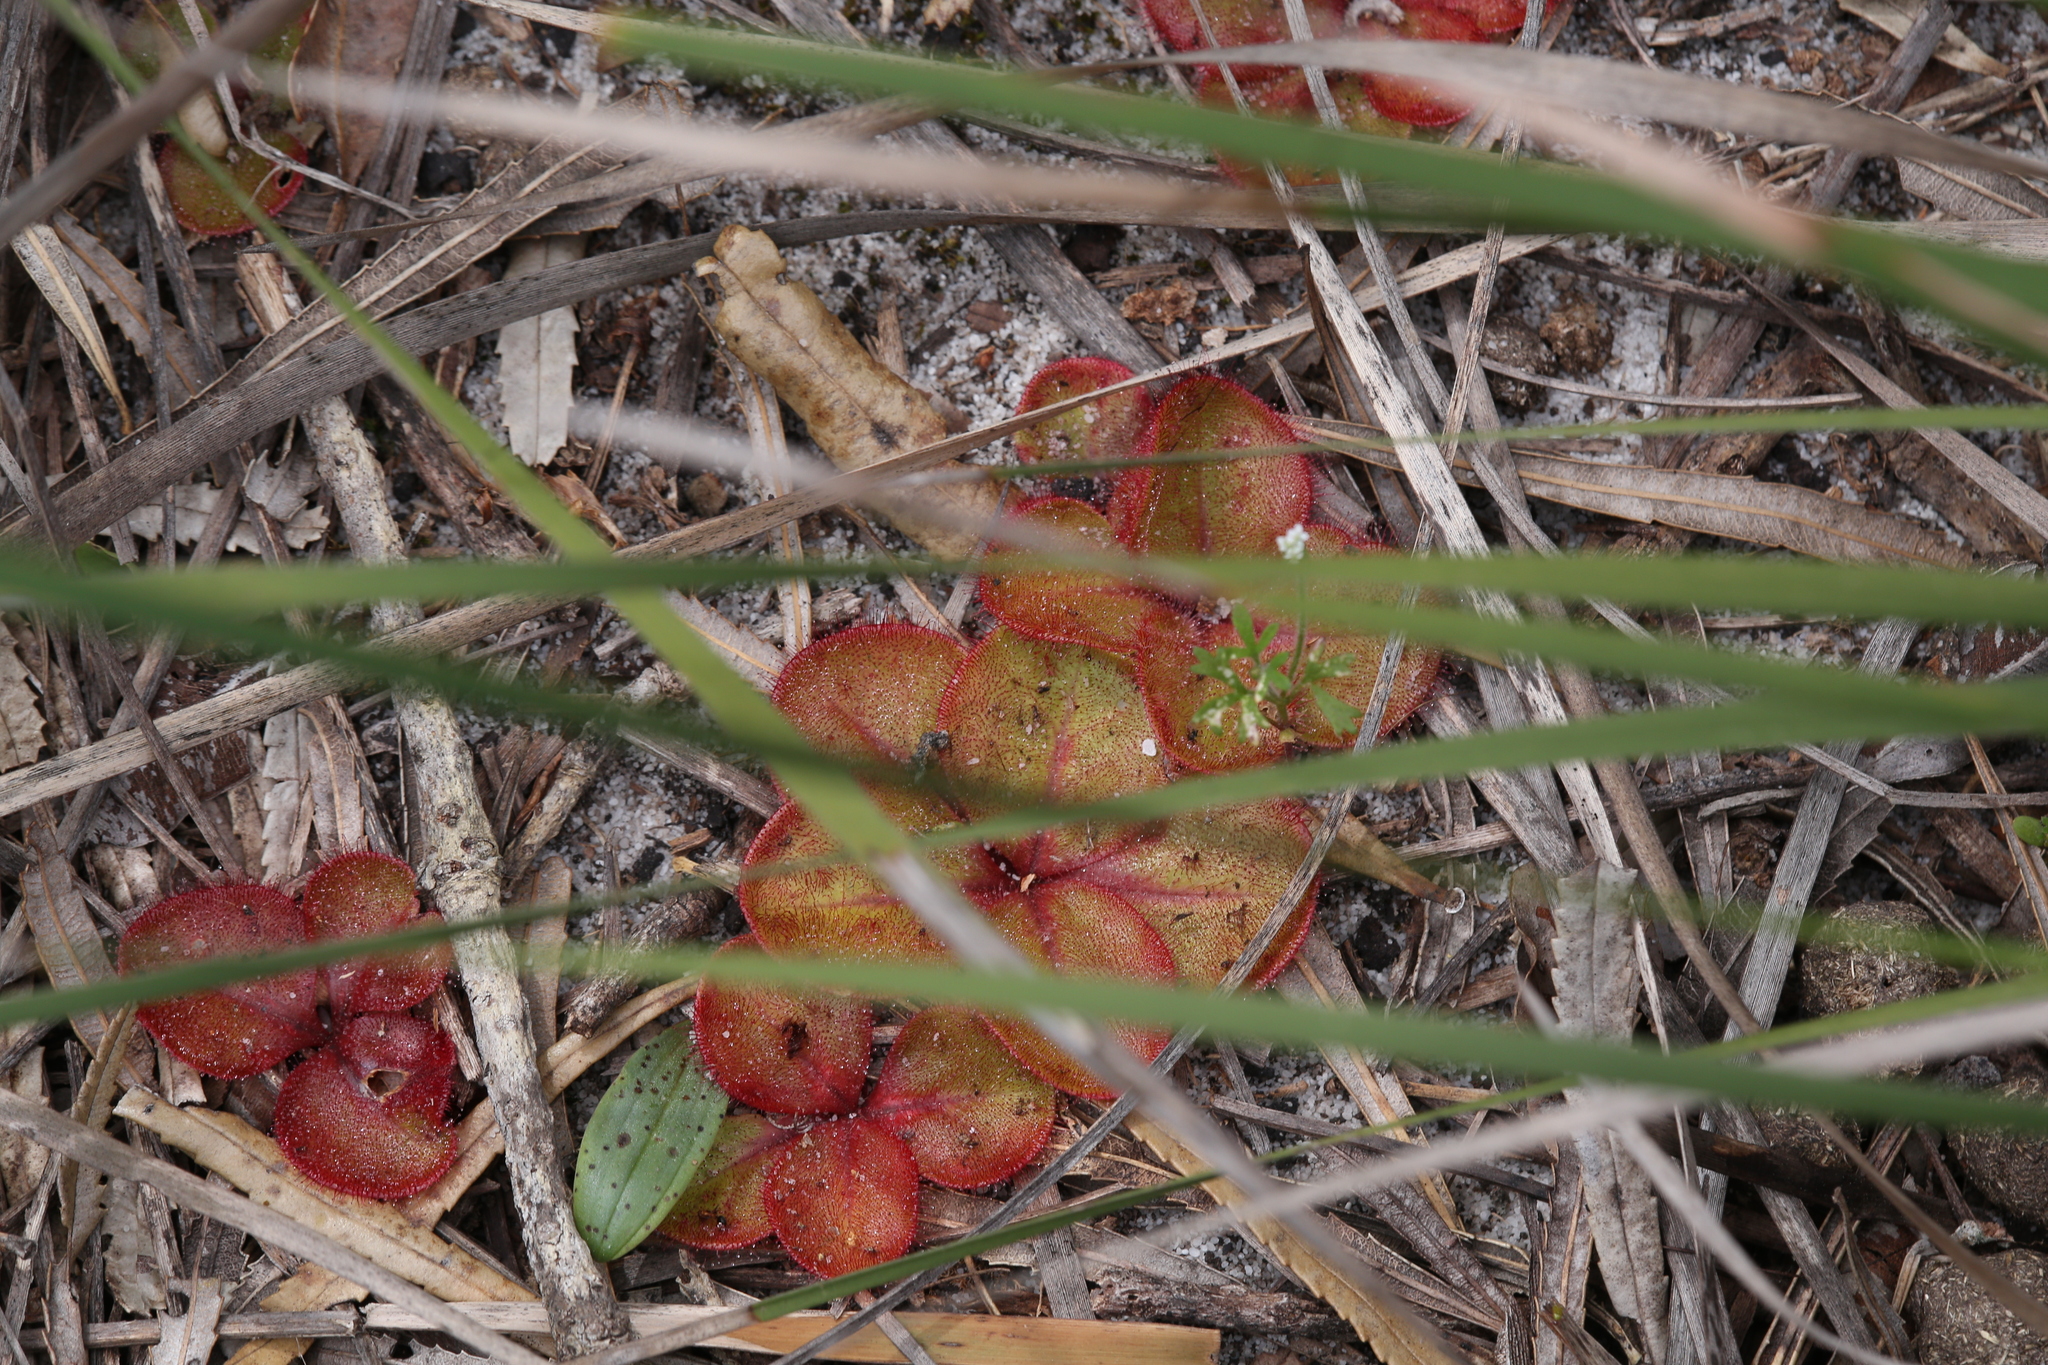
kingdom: Plantae
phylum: Tracheophyta
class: Magnoliopsida
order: Caryophyllales
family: Droseraceae
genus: Drosera
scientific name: Drosera erythrorhiza
